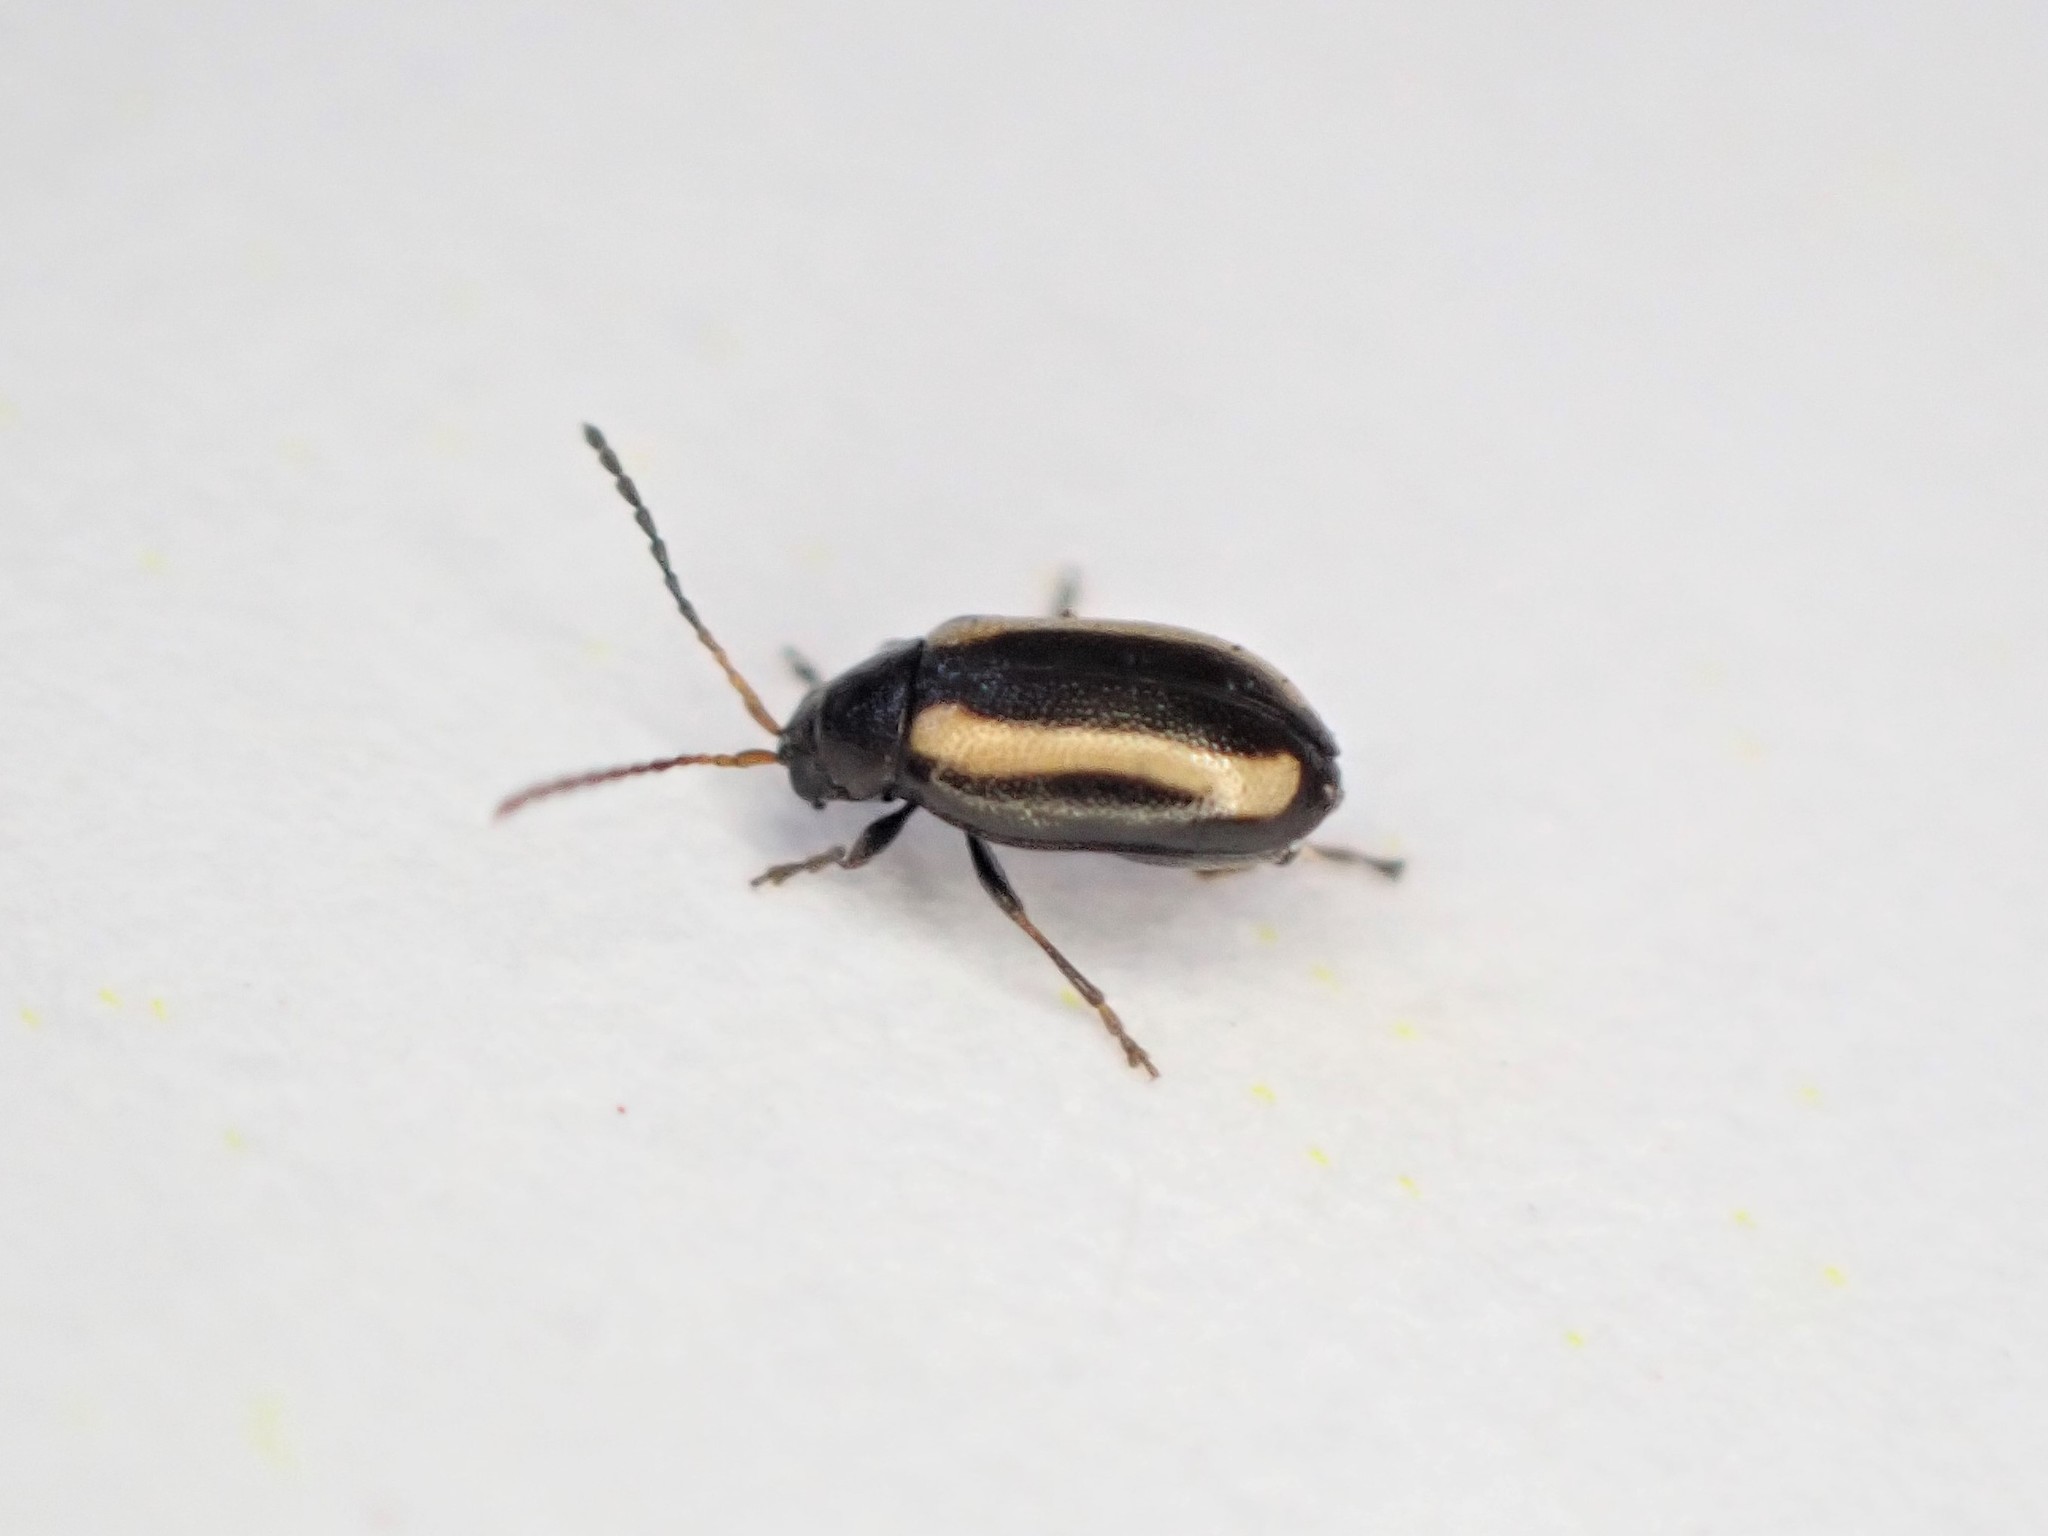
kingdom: Animalia
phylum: Arthropoda
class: Insecta
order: Coleoptera
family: Chrysomelidae
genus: Phyllotreta
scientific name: Phyllotreta undulata
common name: Turnip flea beetle
